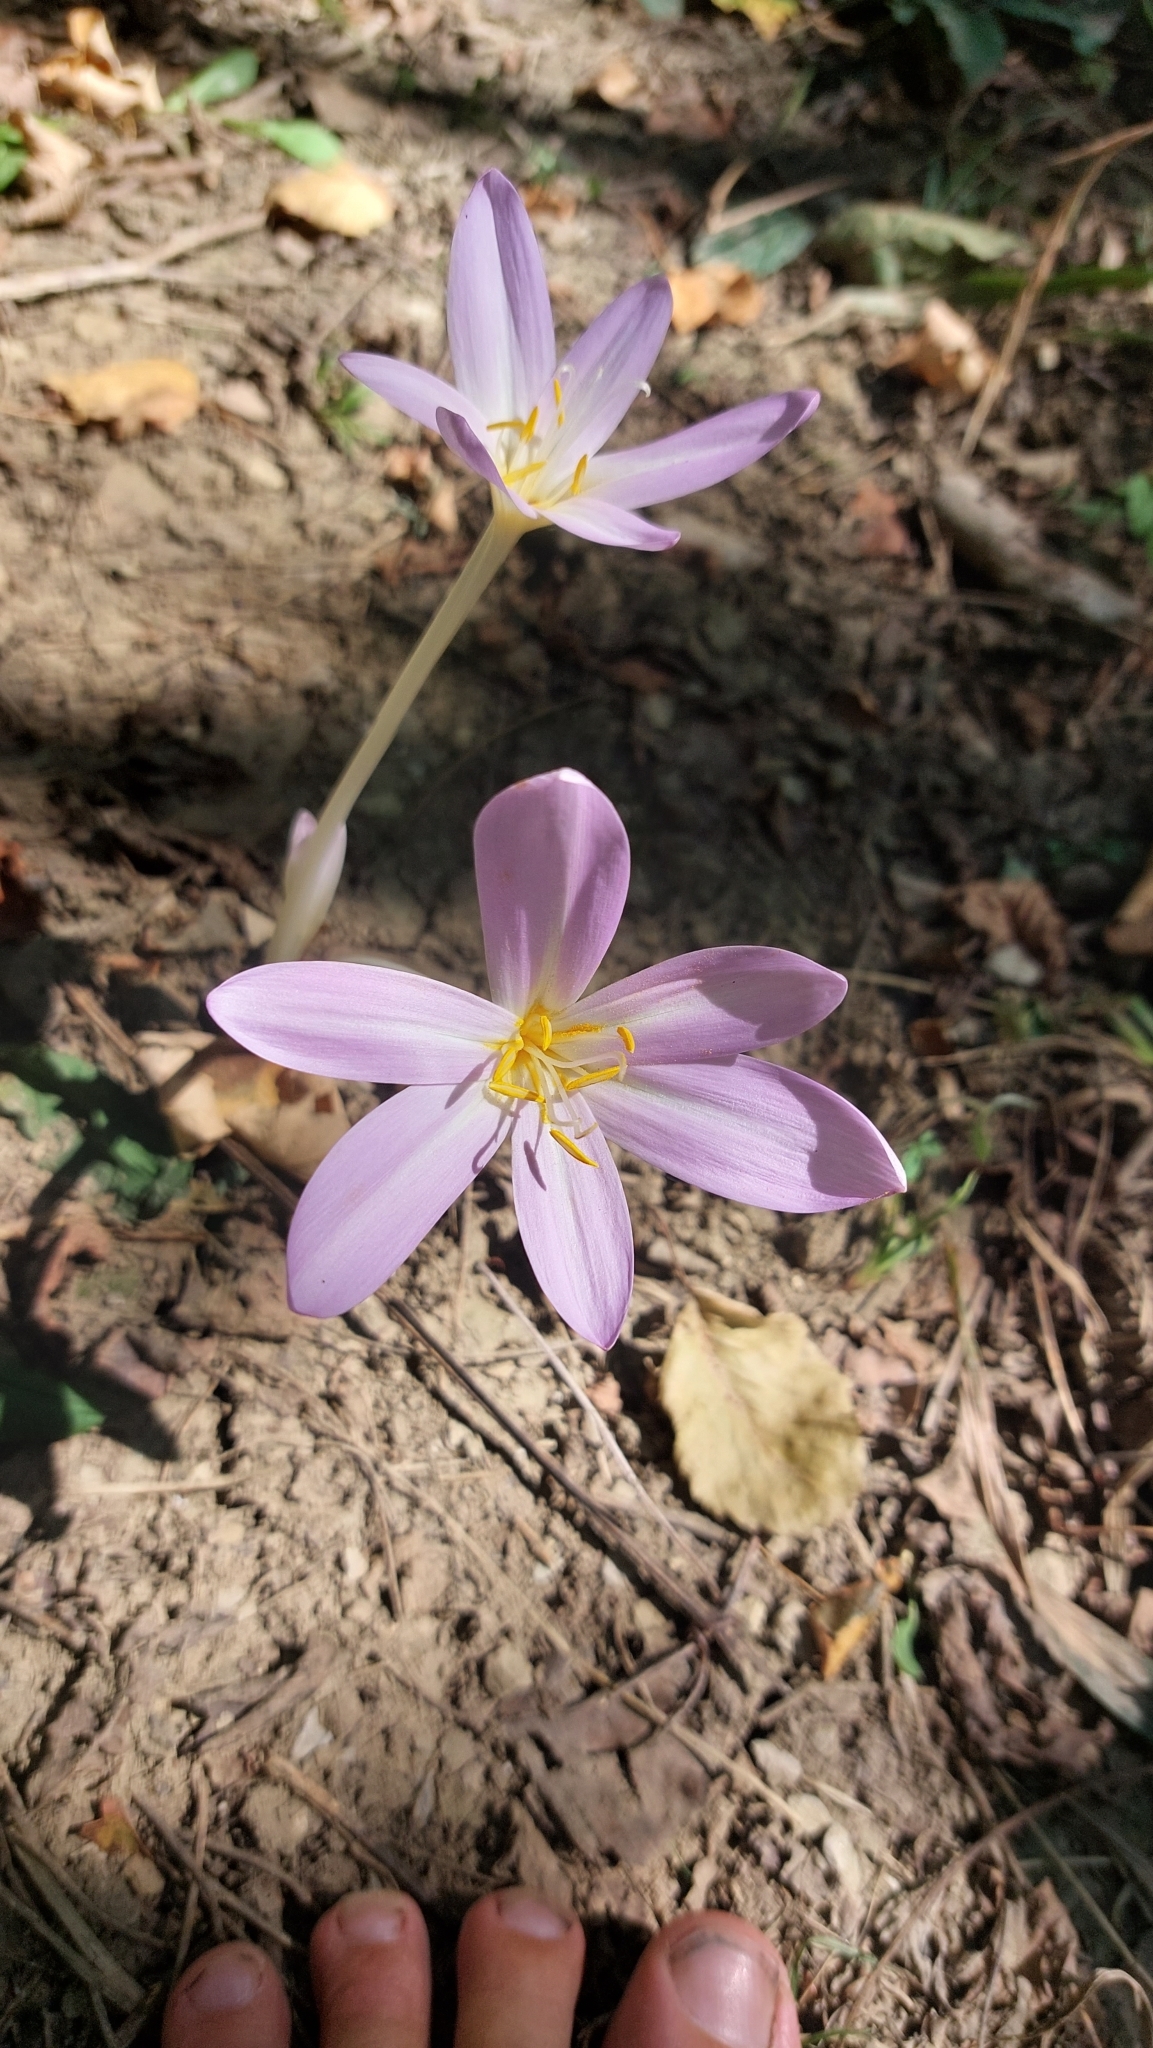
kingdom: Plantae
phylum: Tracheophyta
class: Liliopsida
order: Liliales
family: Colchicaceae
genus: Colchicum
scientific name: Colchicum autumnale
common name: Autumn crocus
